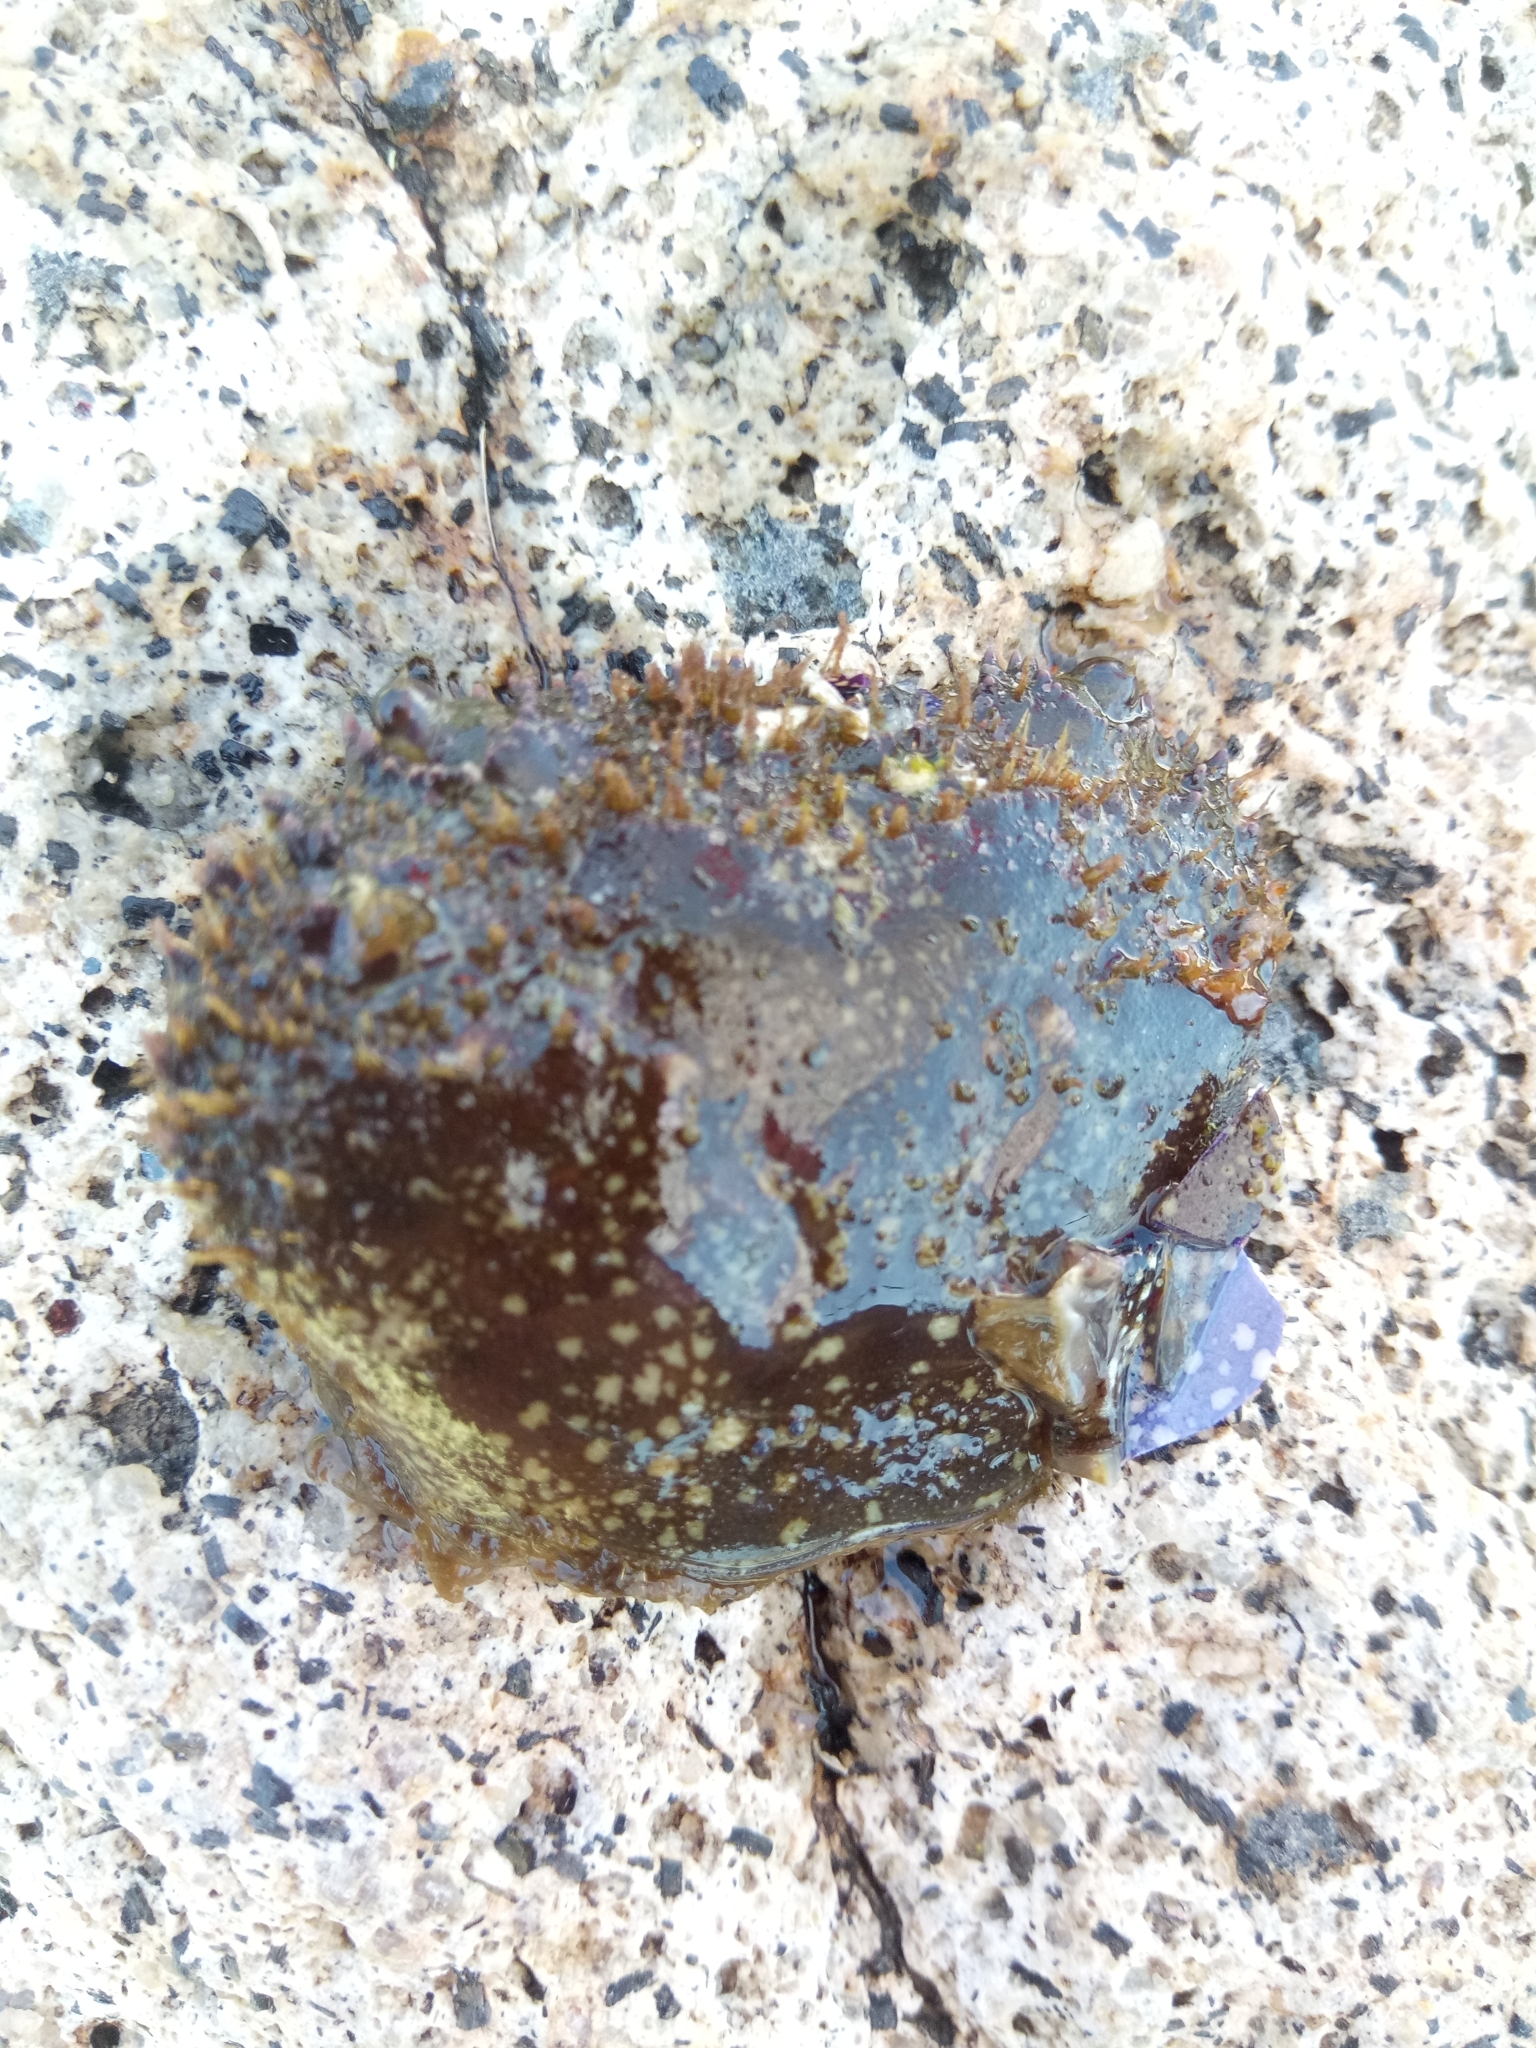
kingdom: Animalia
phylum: Arthropoda
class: Malacostraca
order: Decapoda
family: Eriphiidae
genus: Eriphia
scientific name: Eriphia verrucosa
